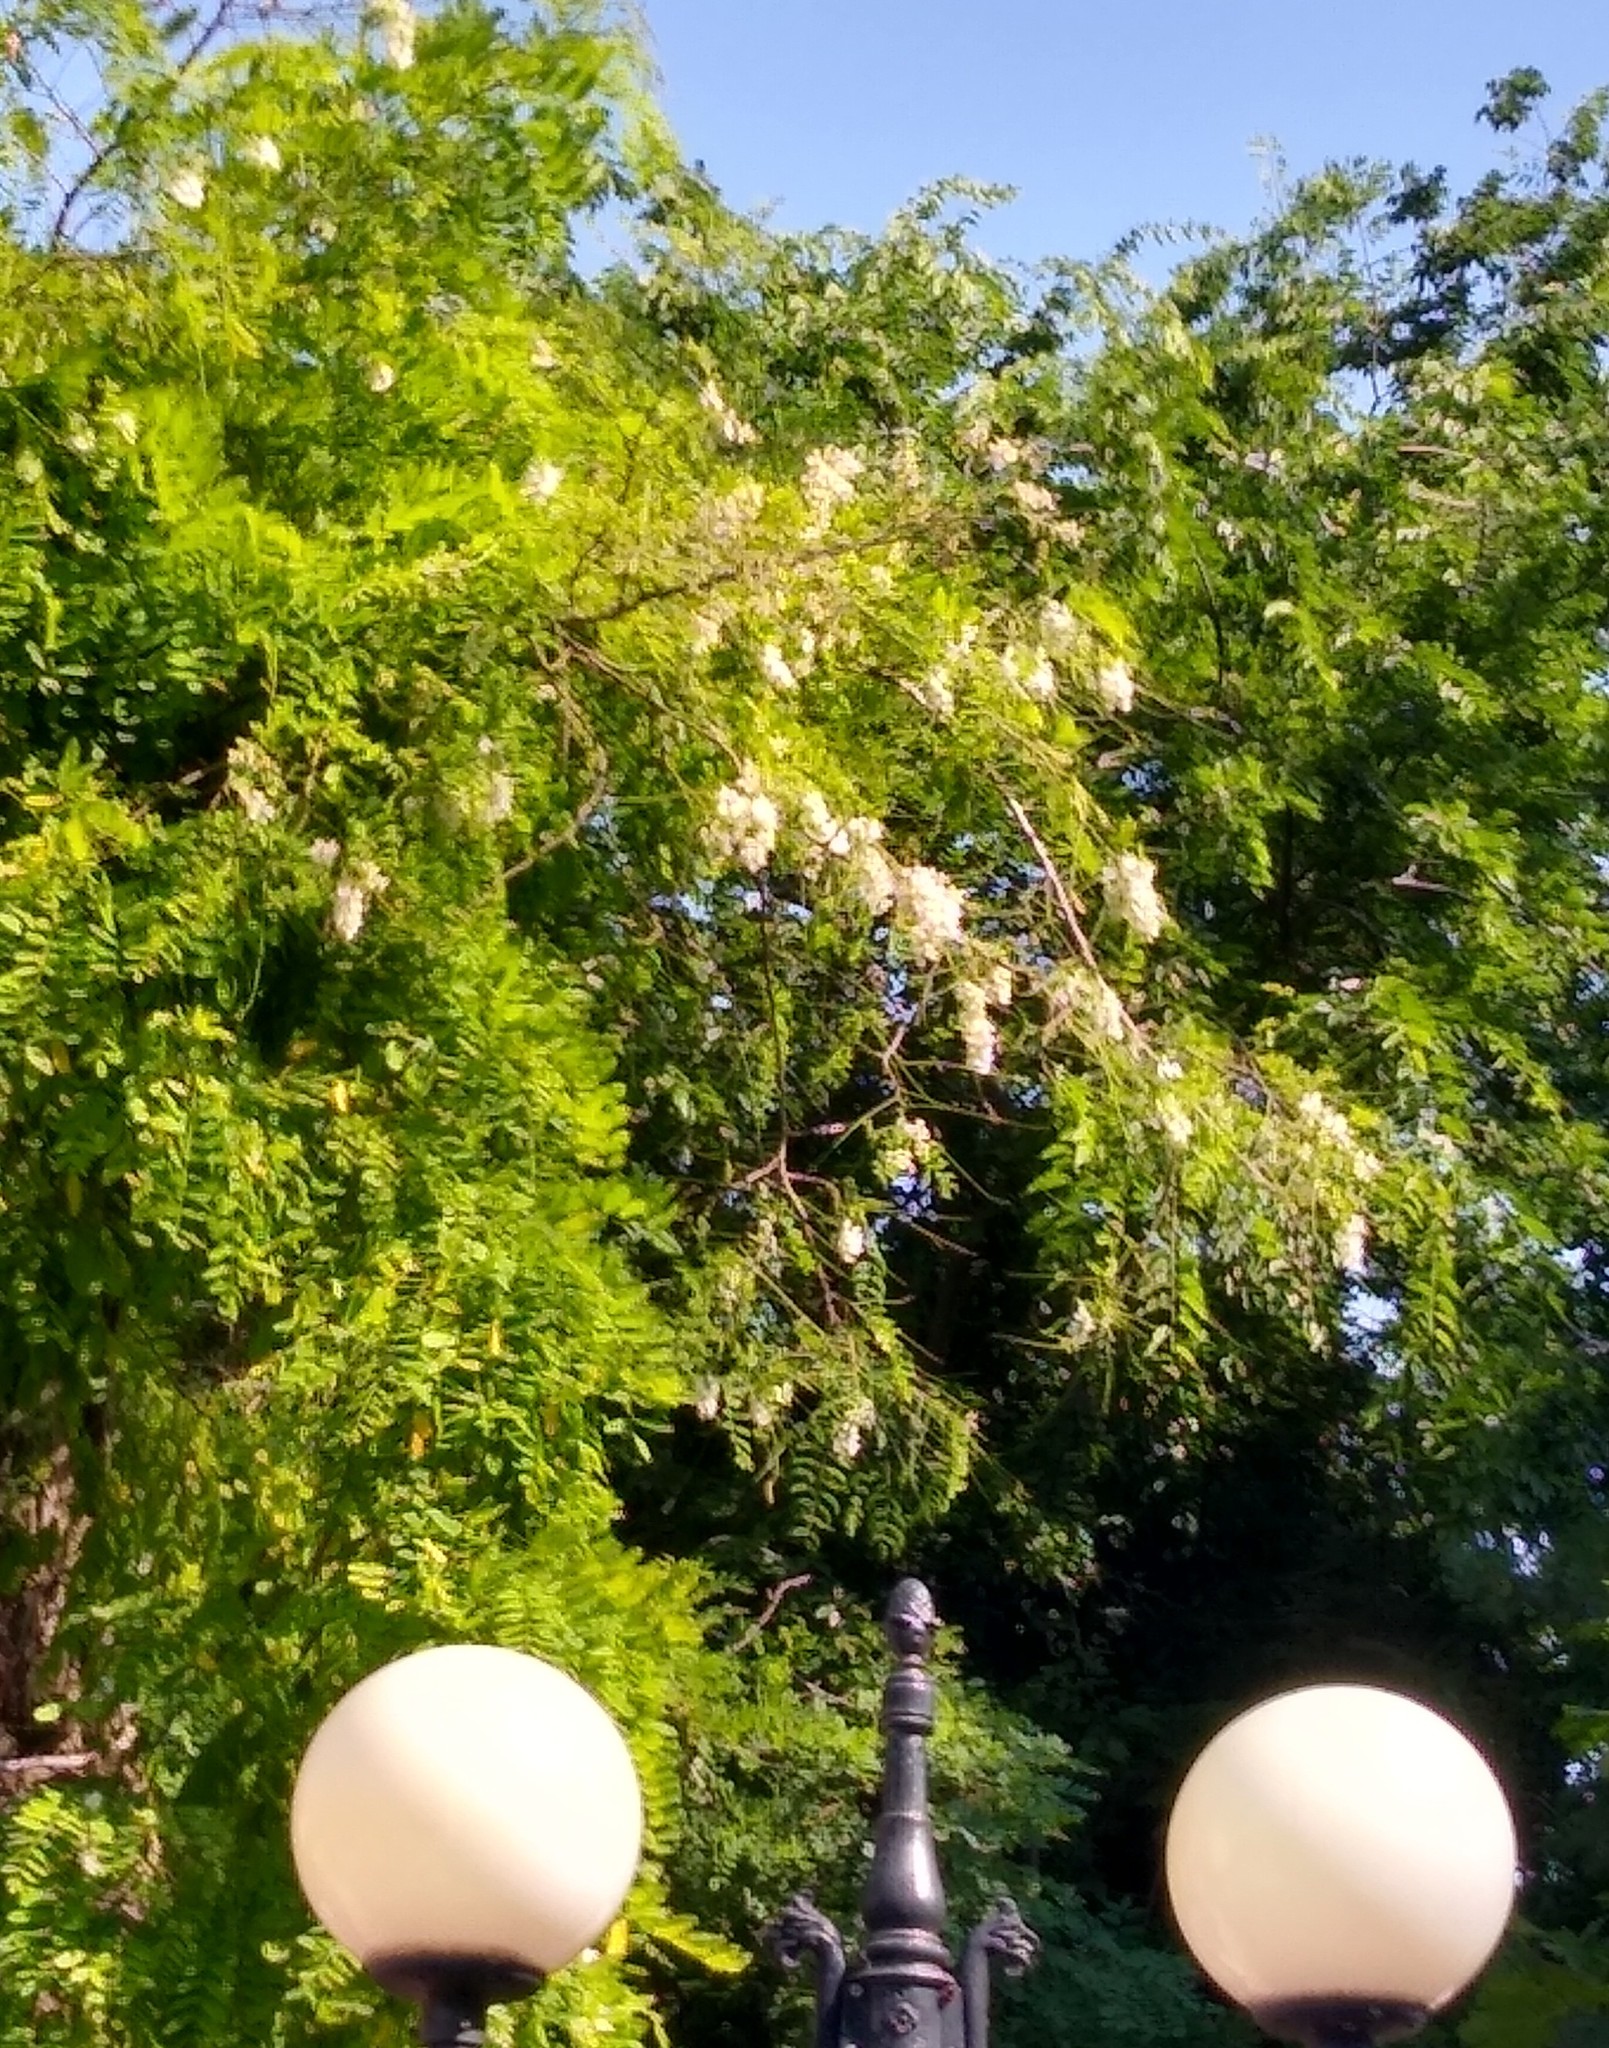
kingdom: Plantae
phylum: Tracheophyta
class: Magnoliopsida
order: Fabales
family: Fabaceae
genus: Robinia
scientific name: Robinia pseudoacacia
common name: Black locust
